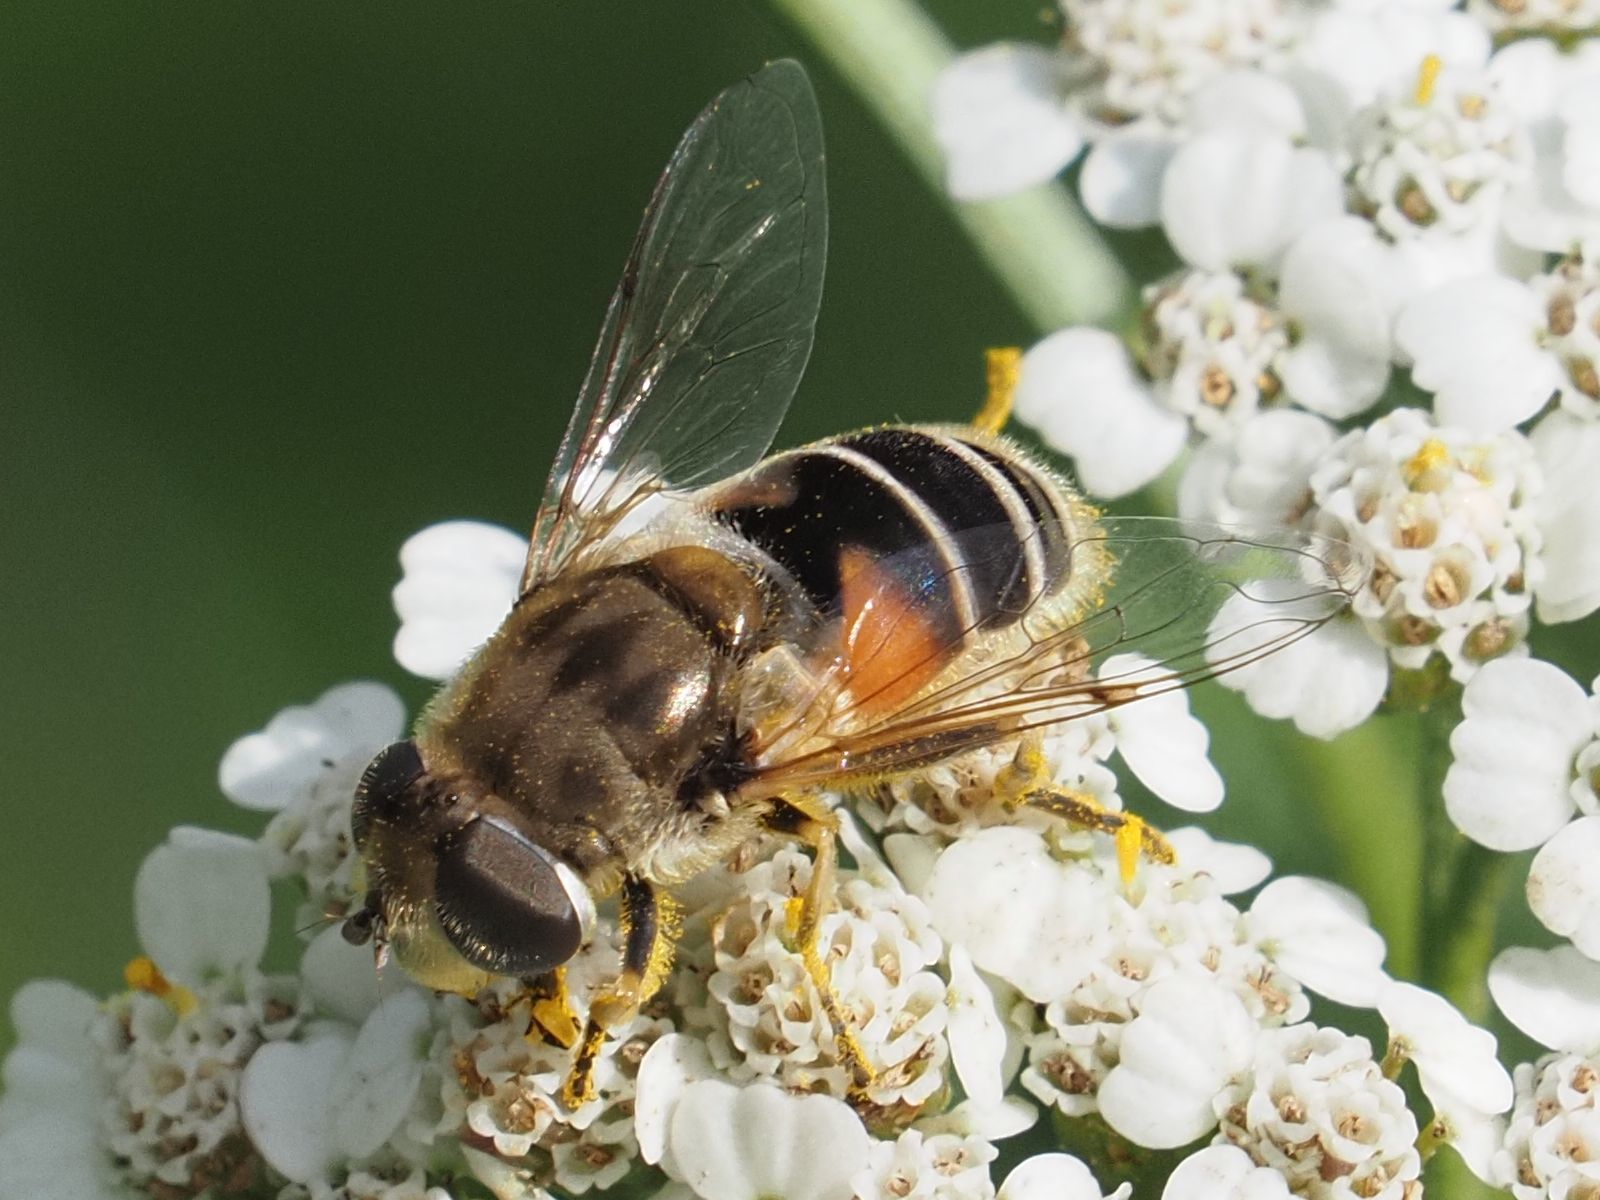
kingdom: Animalia
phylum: Arthropoda
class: Insecta
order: Diptera
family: Syrphidae
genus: Eristalis
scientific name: Eristalis arbustorum
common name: Hover fly
